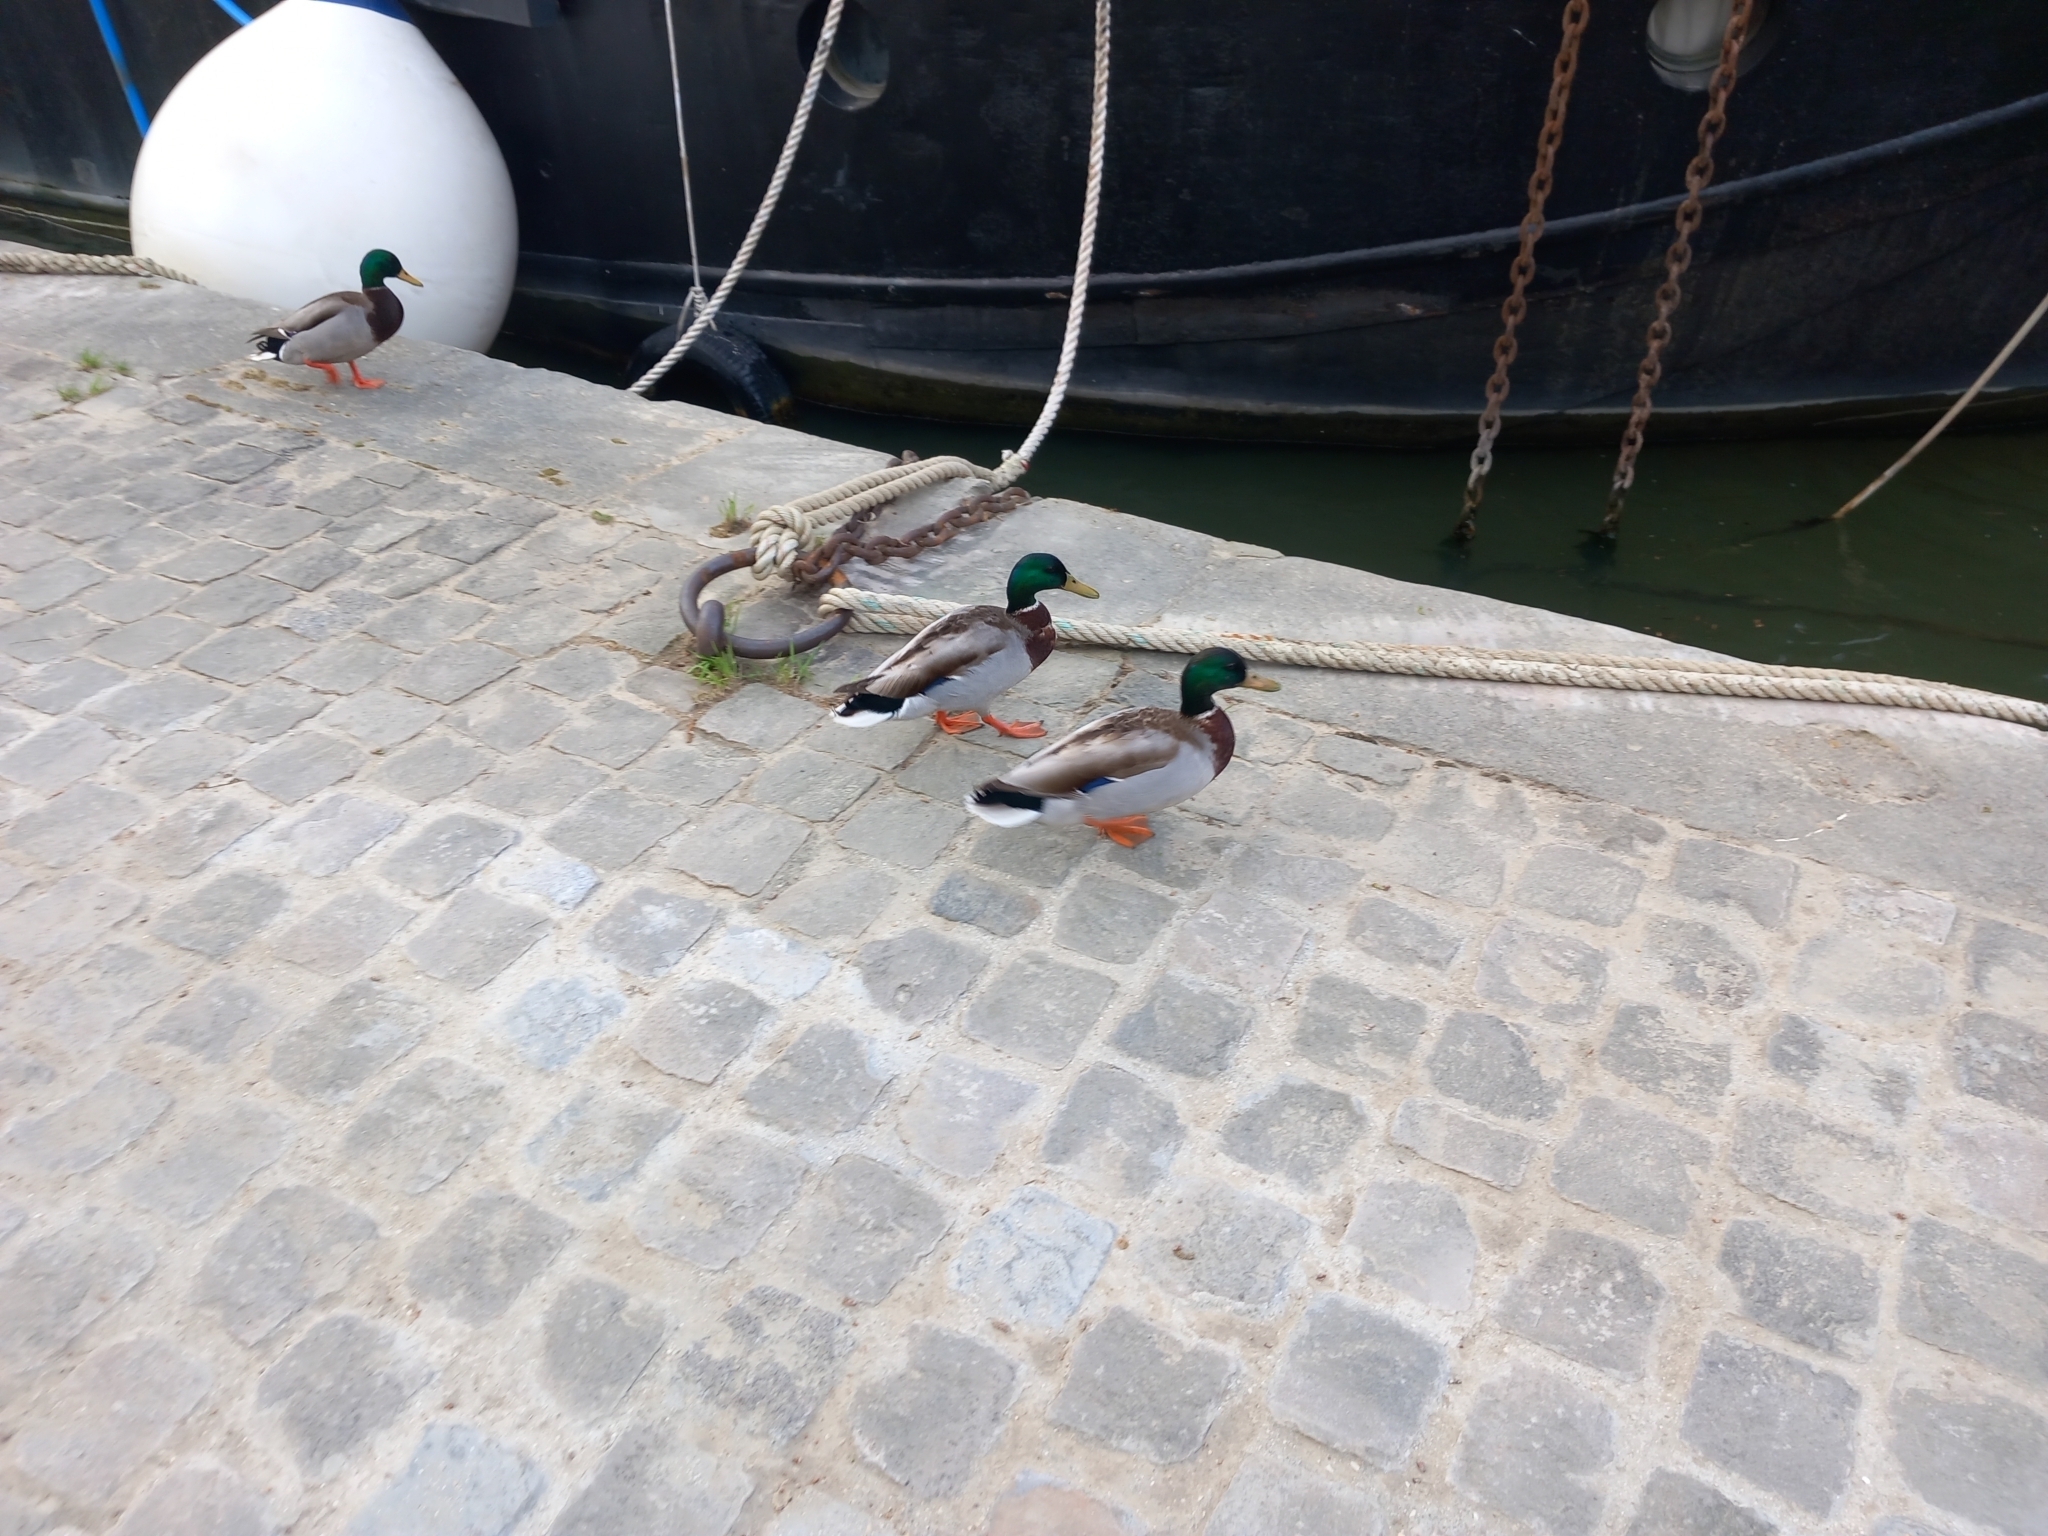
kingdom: Animalia
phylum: Chordata
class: Aves
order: Anseriformes
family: Anatidae
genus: Anas
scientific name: Anas platyrhynchos
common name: Mallard
